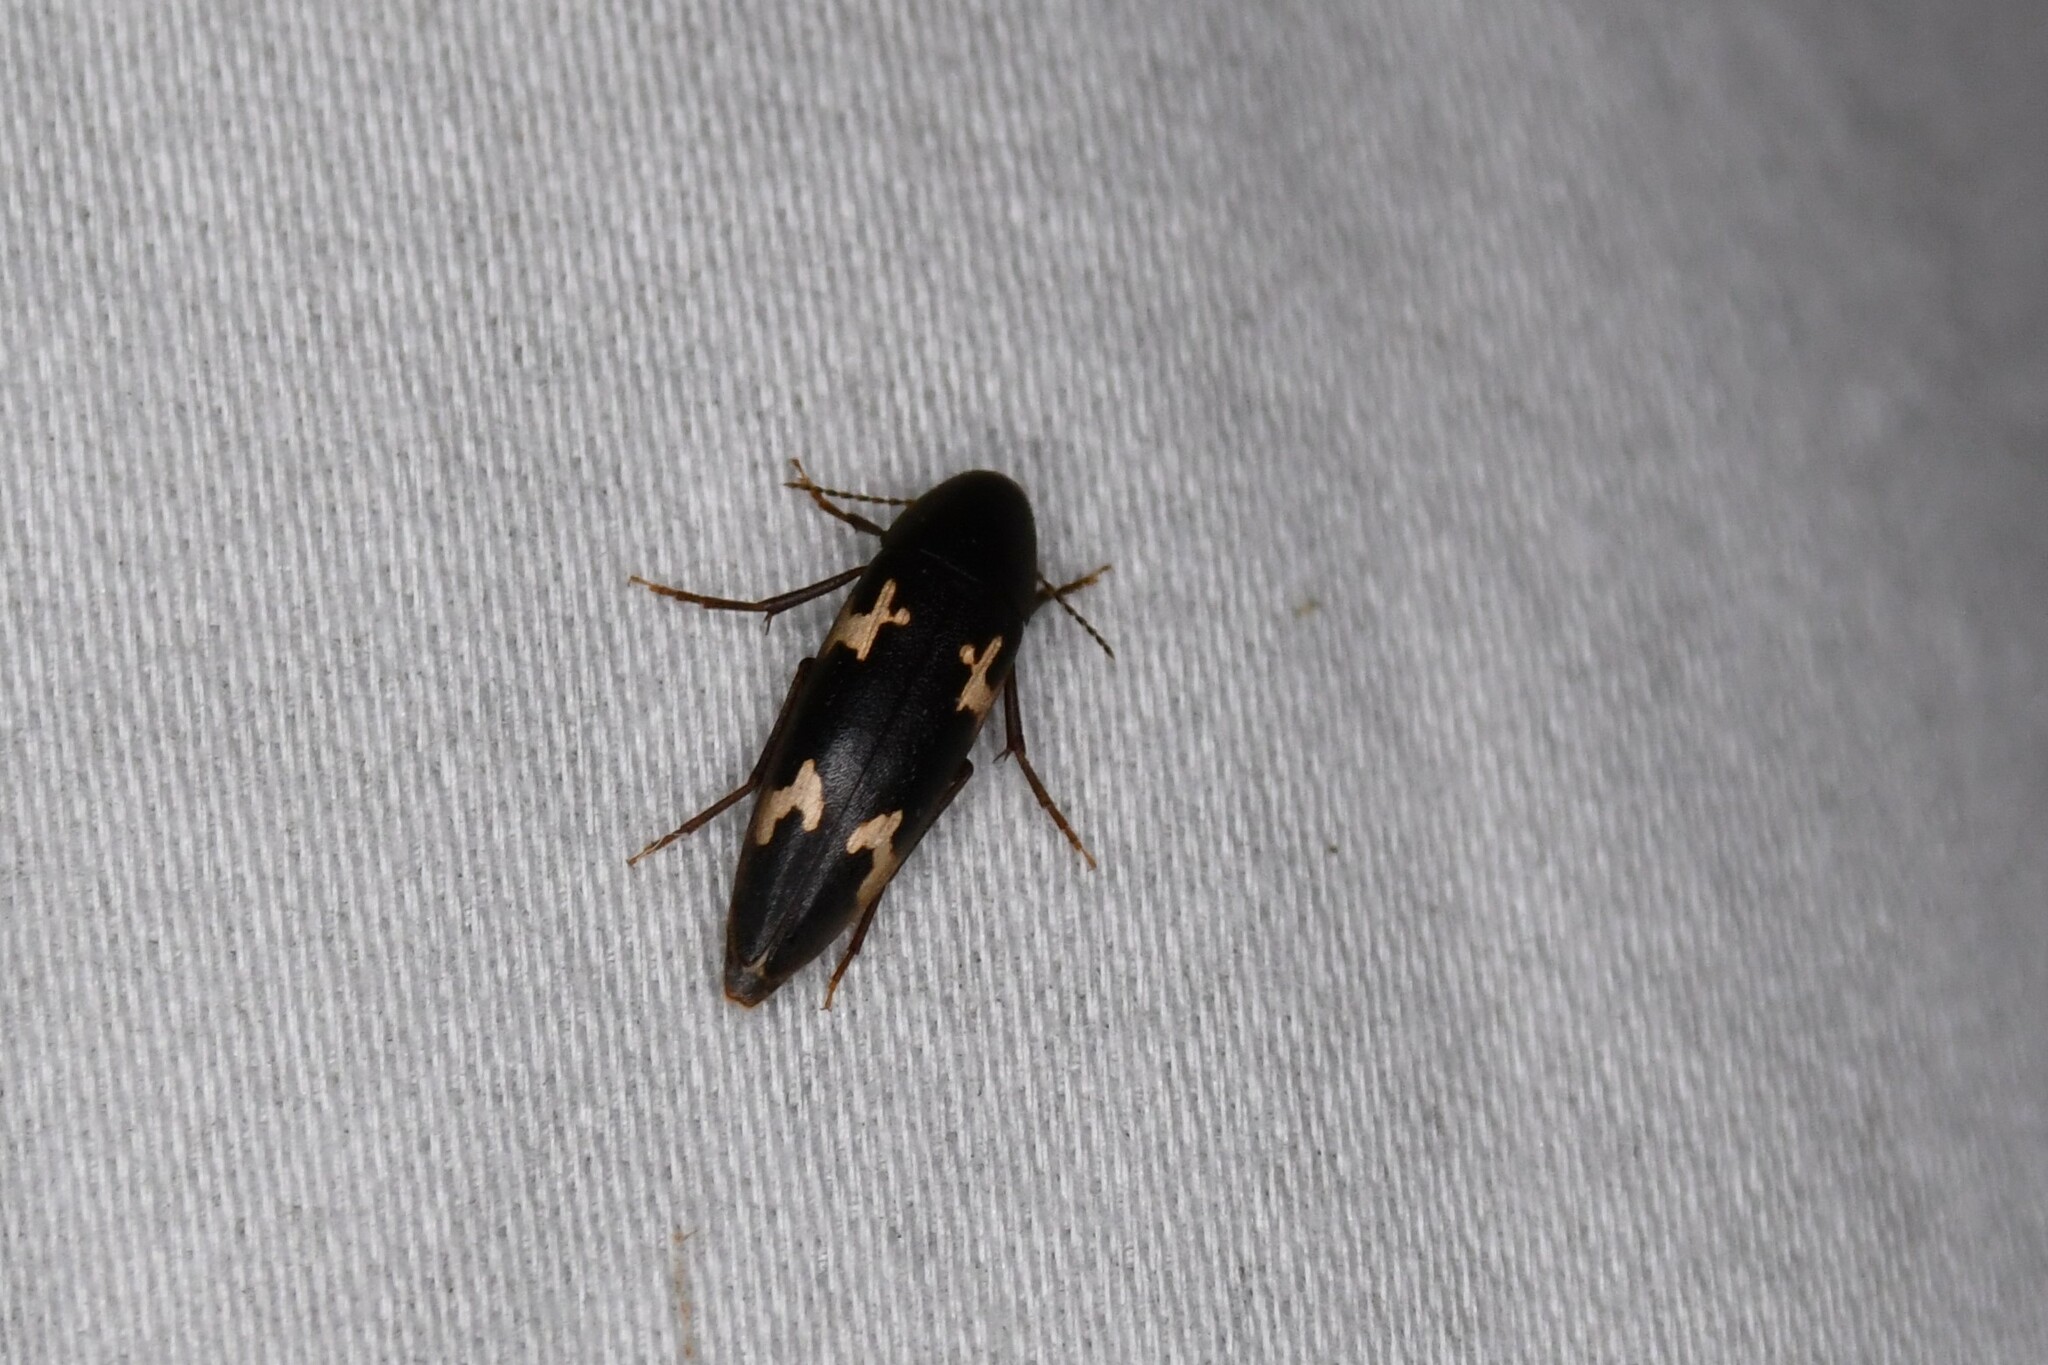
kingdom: Animalia
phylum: Arthropoda
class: Insecta
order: Coleoptera
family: Melandryidae
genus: Dircaea
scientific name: Dircaea liturata
